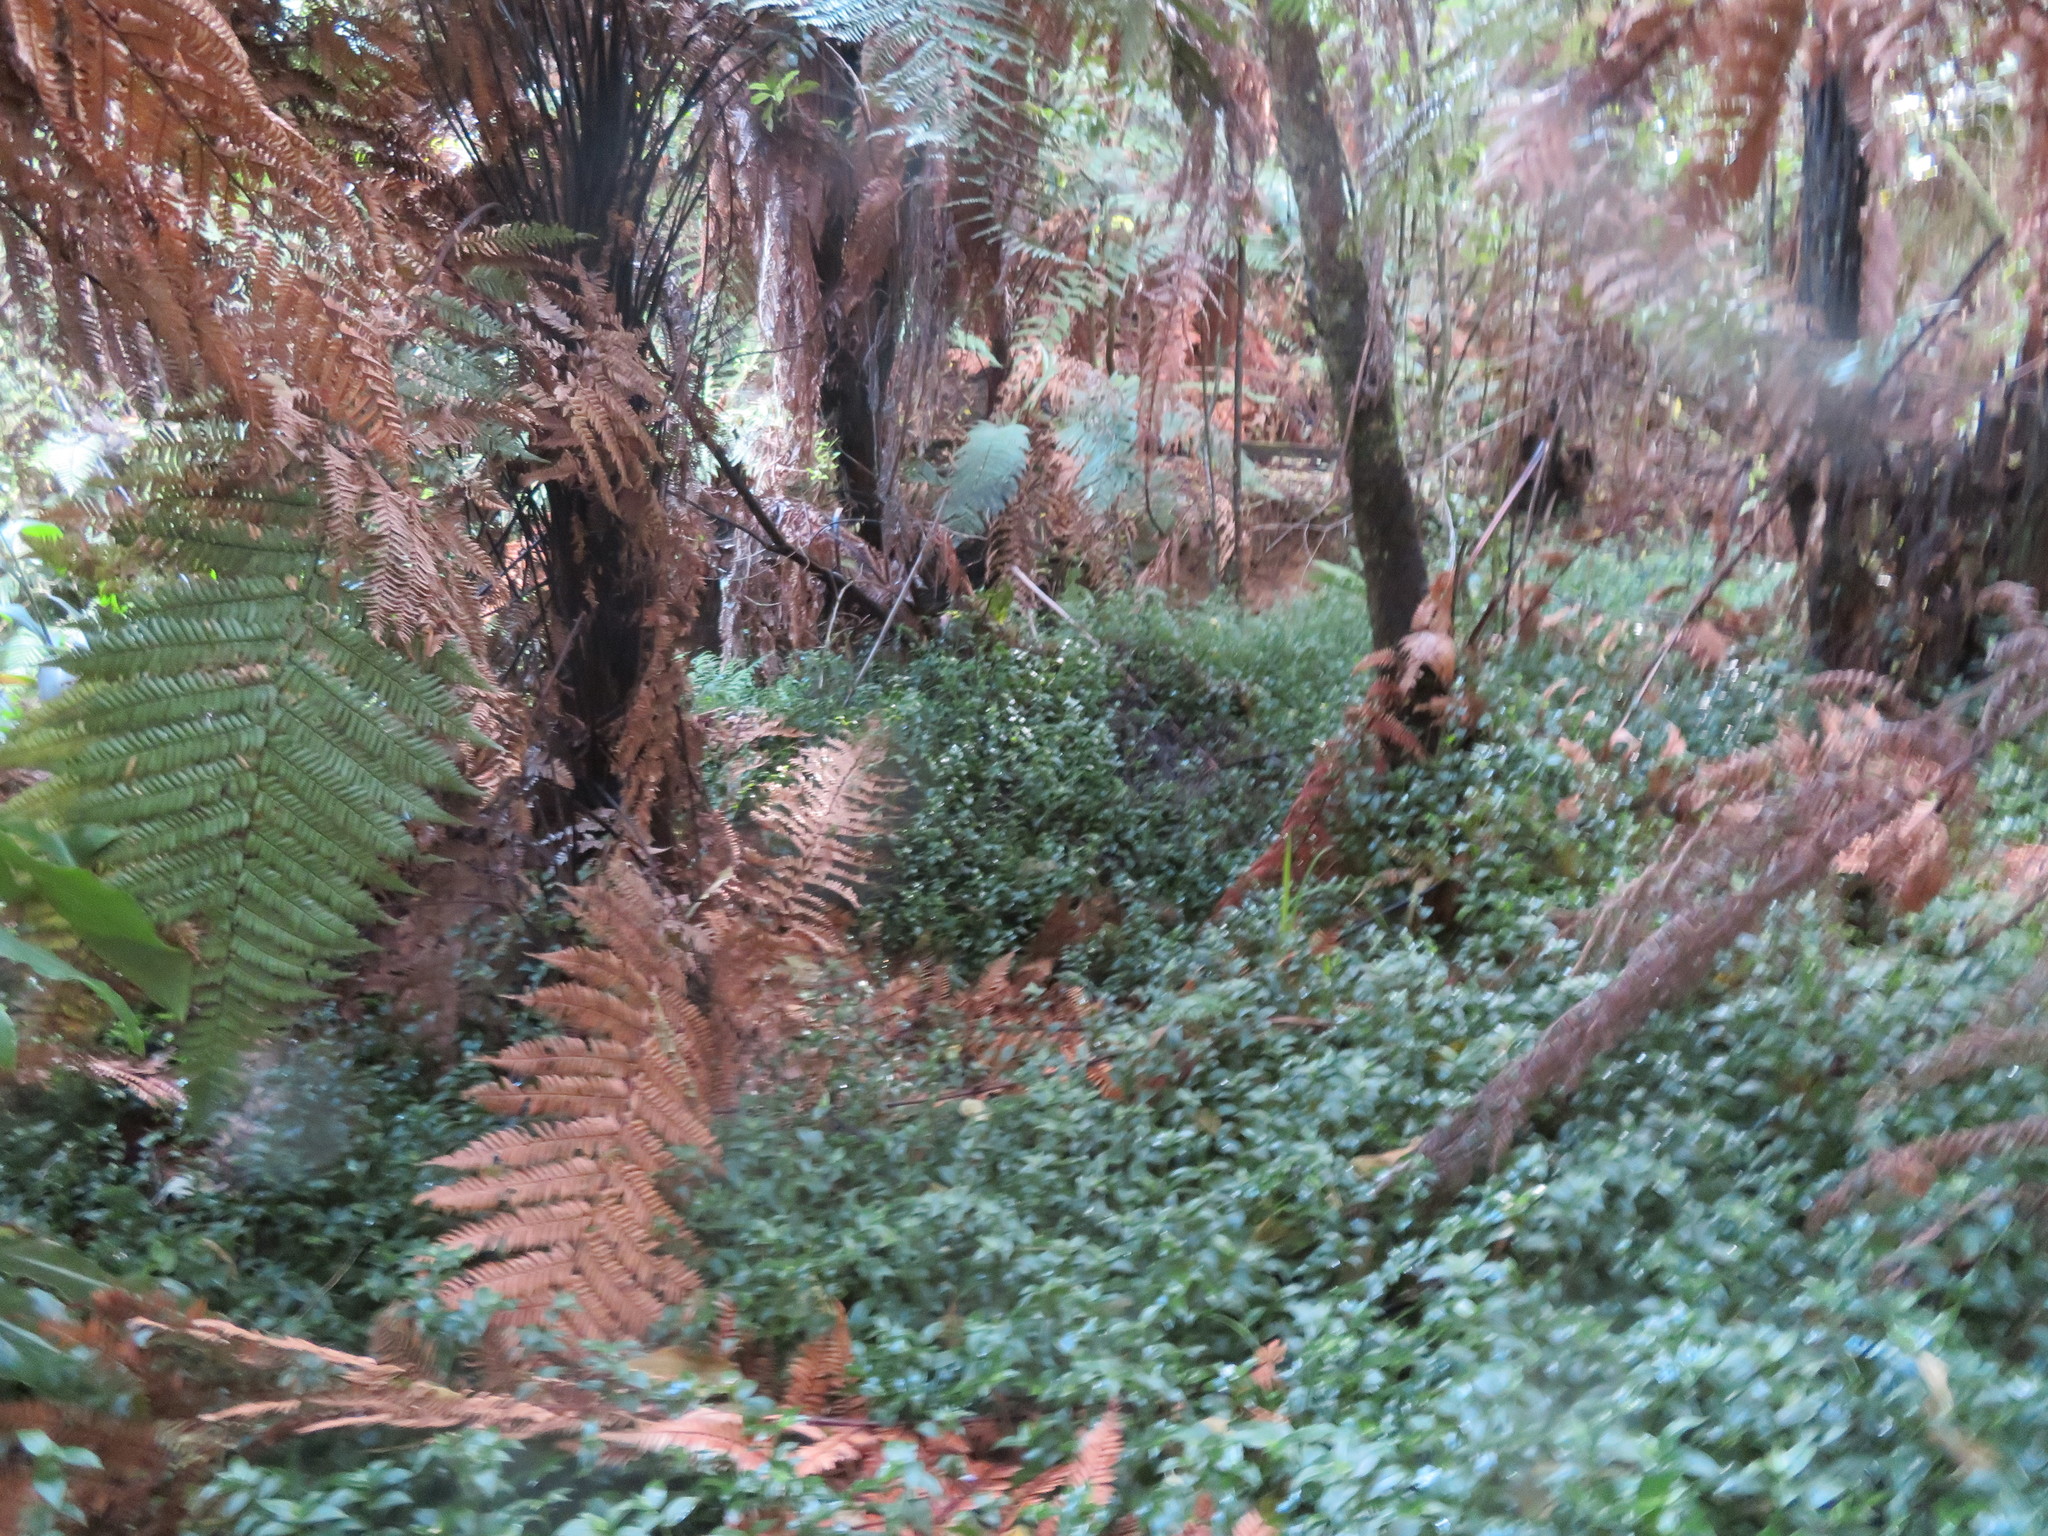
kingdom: Plantae
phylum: Tracheophyta
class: Liliopsida
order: Commelinales
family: Commelinaceae
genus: Tradescantia
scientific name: Tradescantia fluminensis
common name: Wandering-jew
